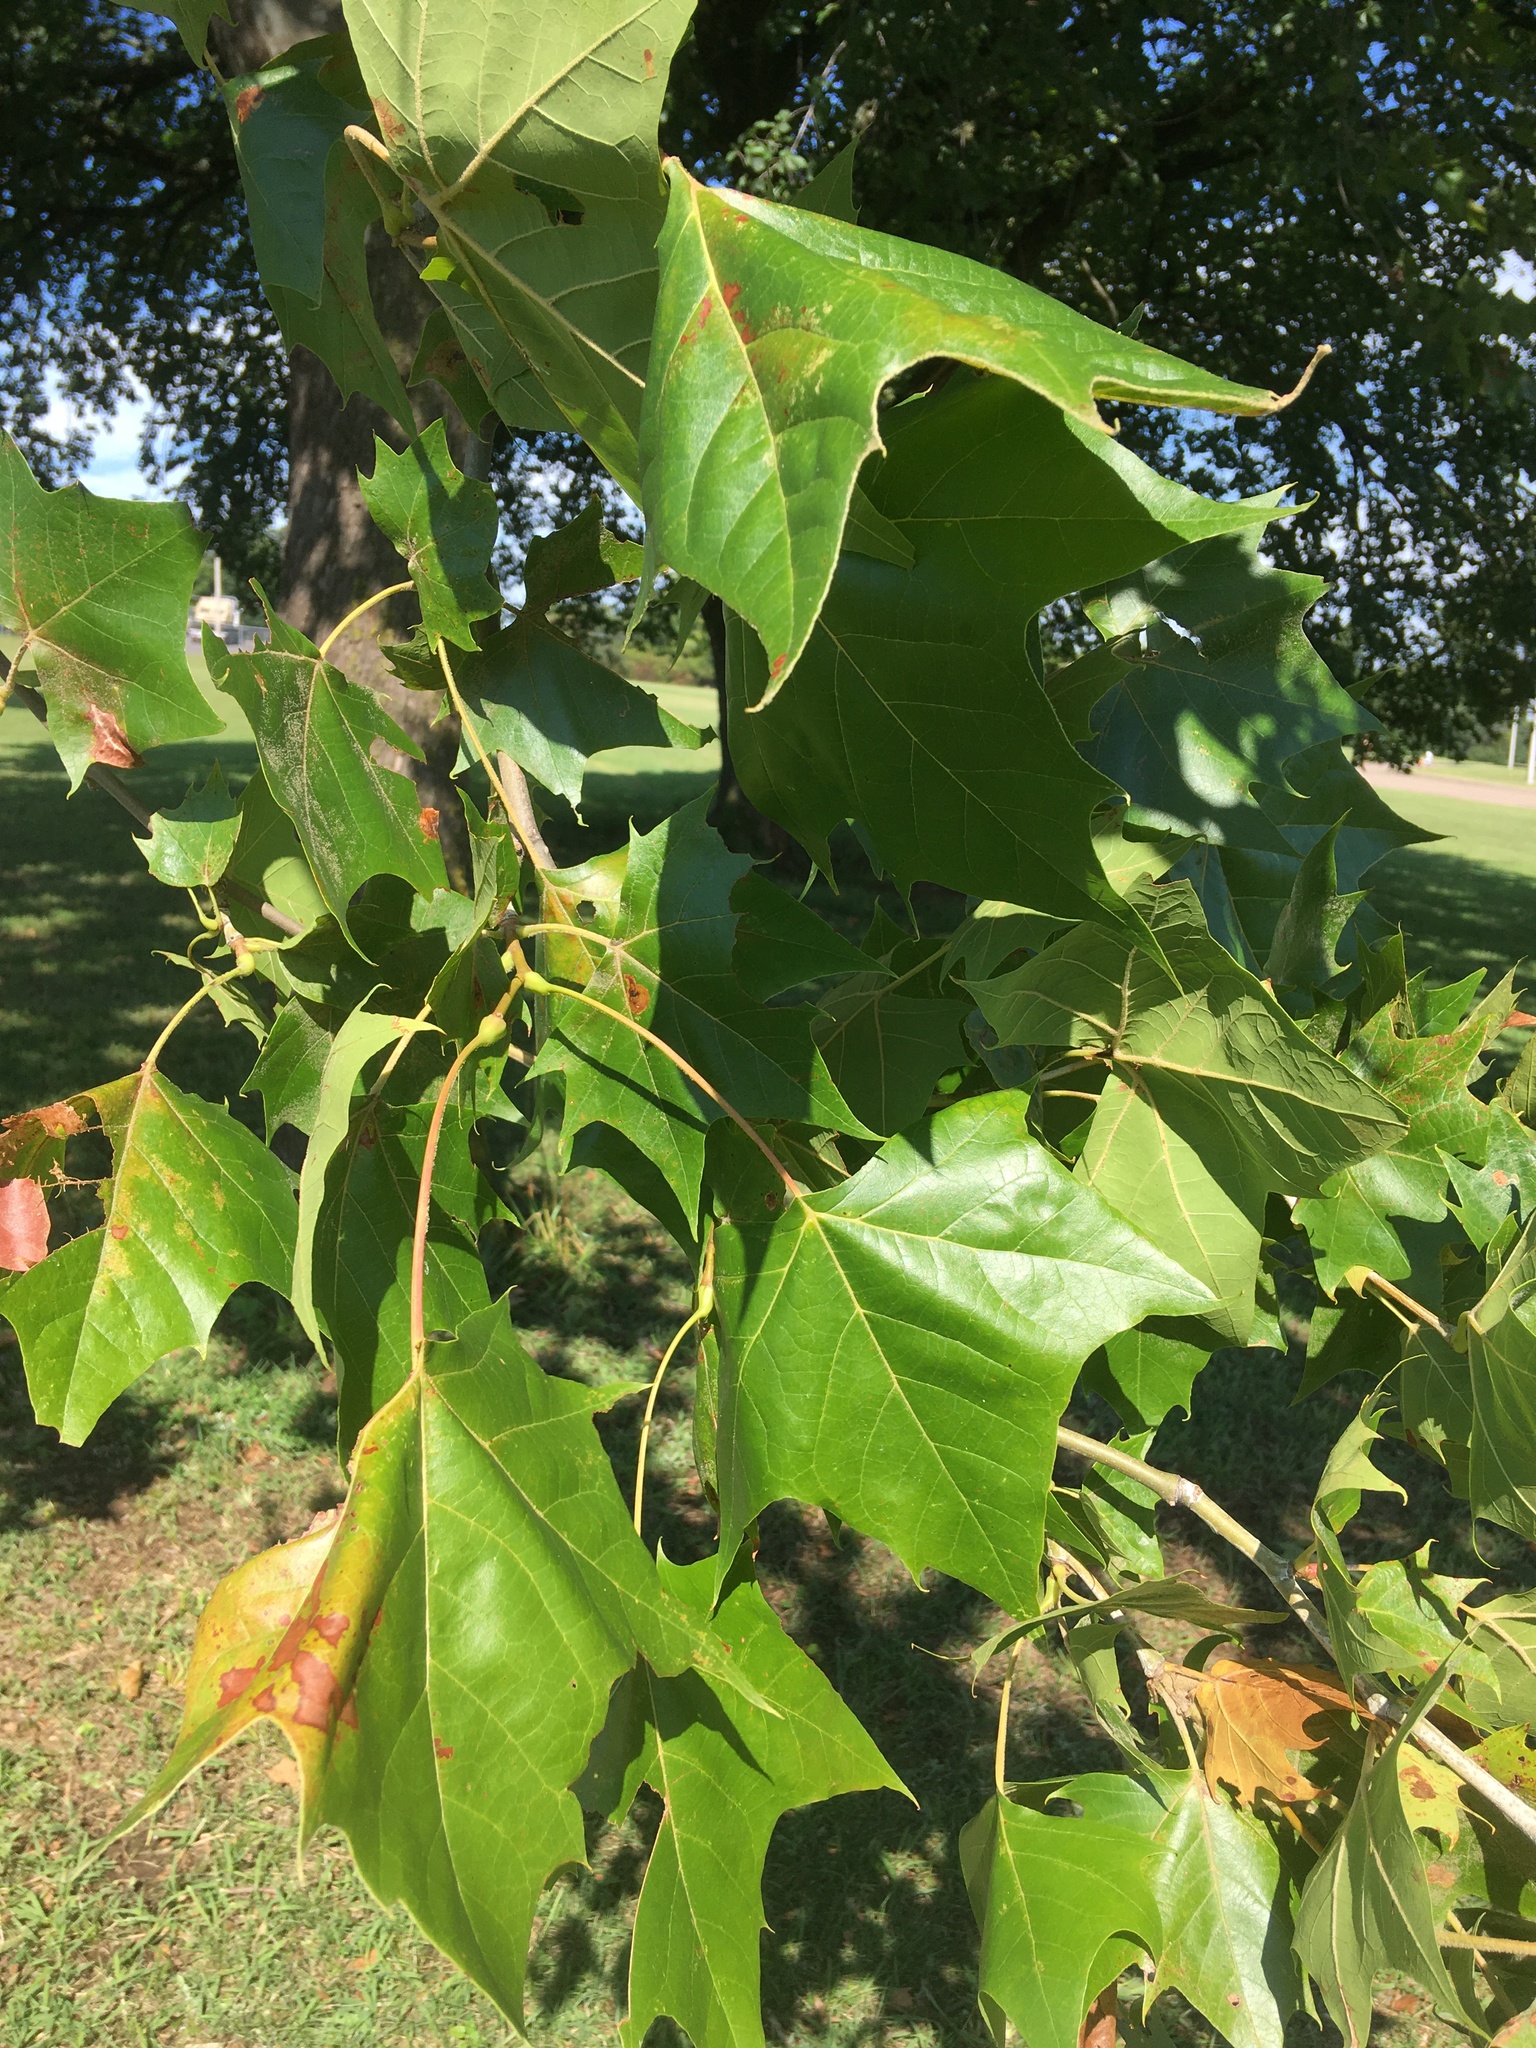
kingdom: Plantae
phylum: Tracheophyta
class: Magnoliopsida
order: Proteales
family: Platanaceae
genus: Platanus
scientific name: Platanus occidentalis
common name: American sycamore
